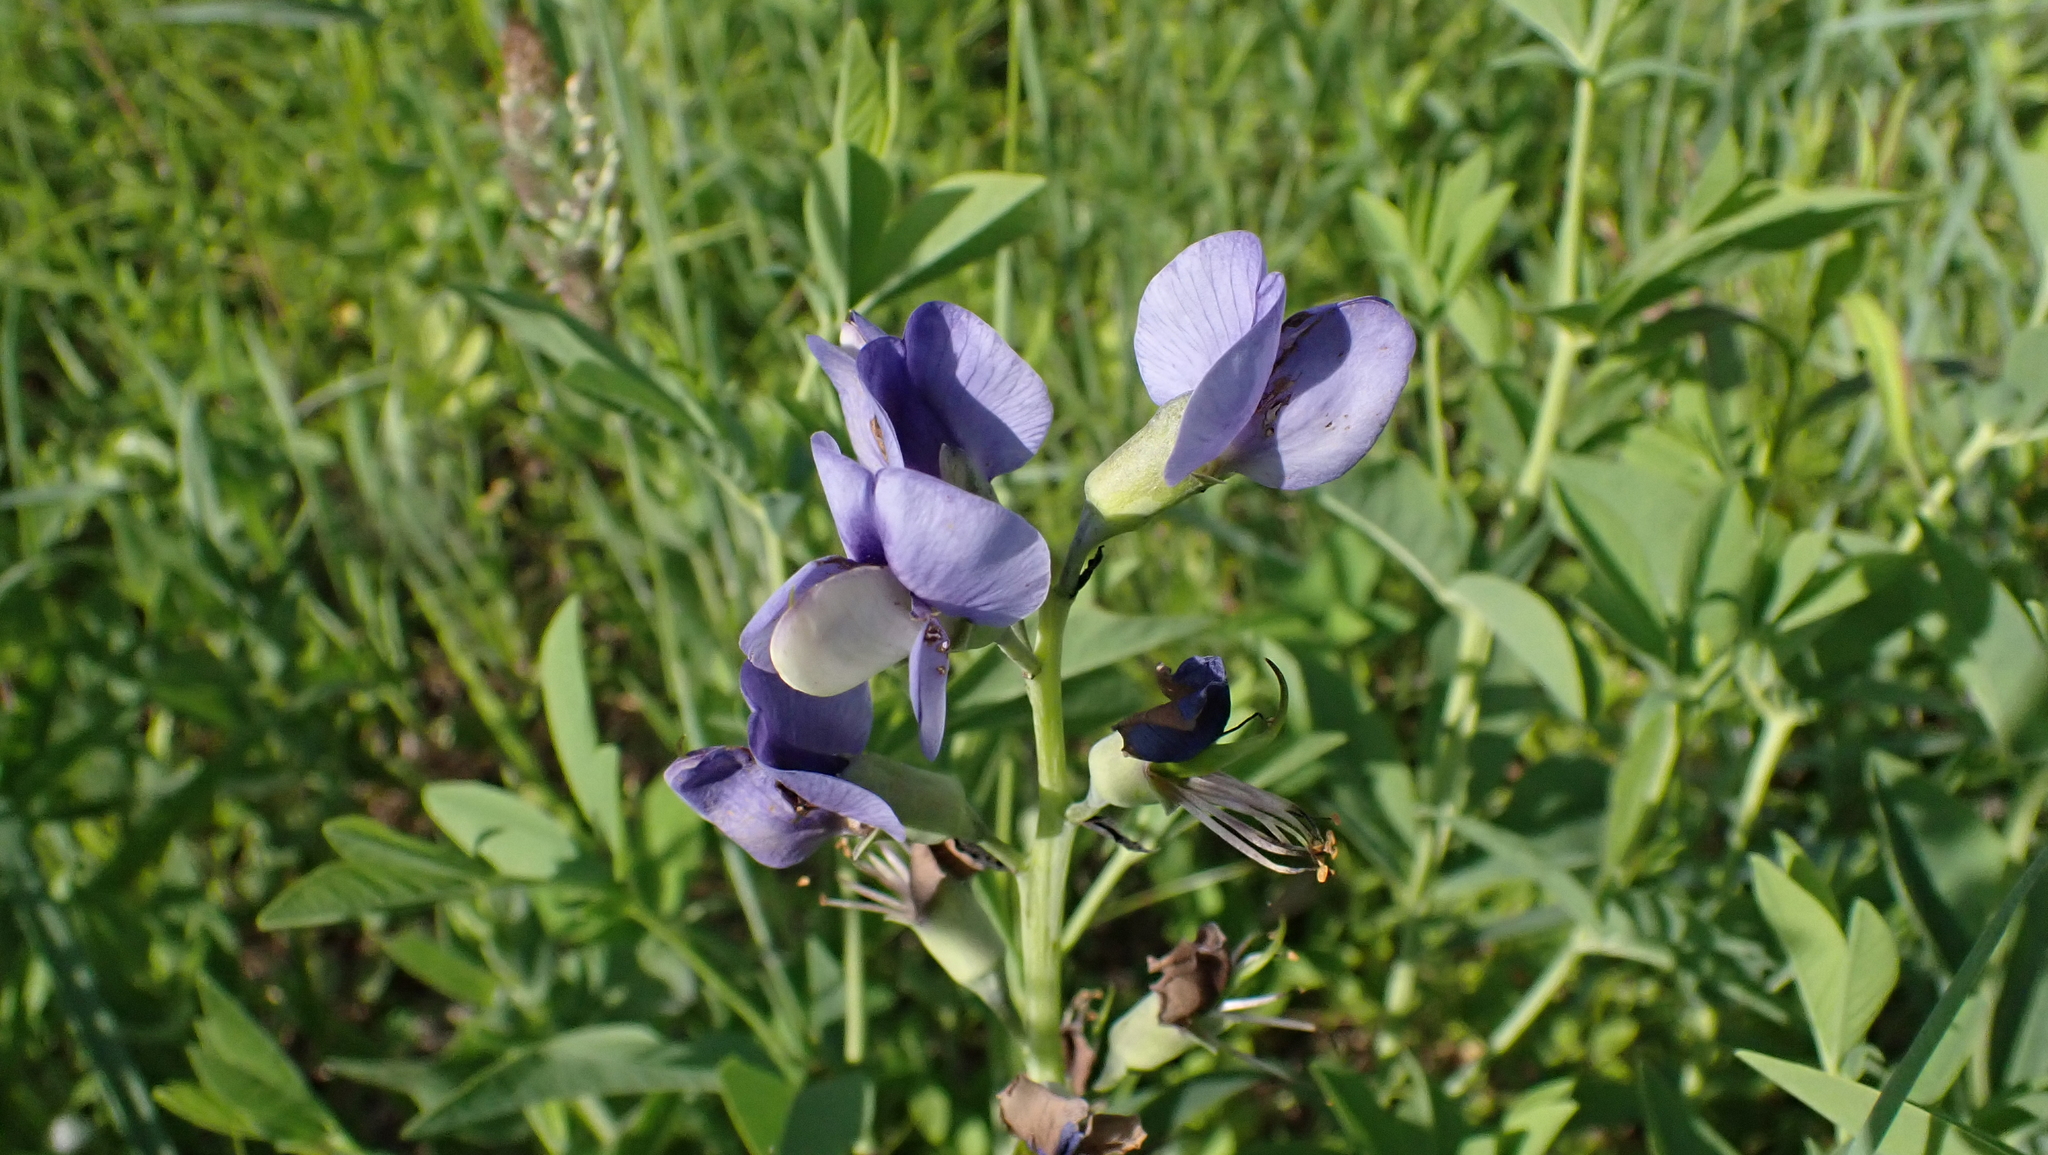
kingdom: Plantae
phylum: Tracheophyta
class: Magnoliopsida
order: Fabales
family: Fabaceae
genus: Baptisia
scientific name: Baptisia australis
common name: Blue false indigo
